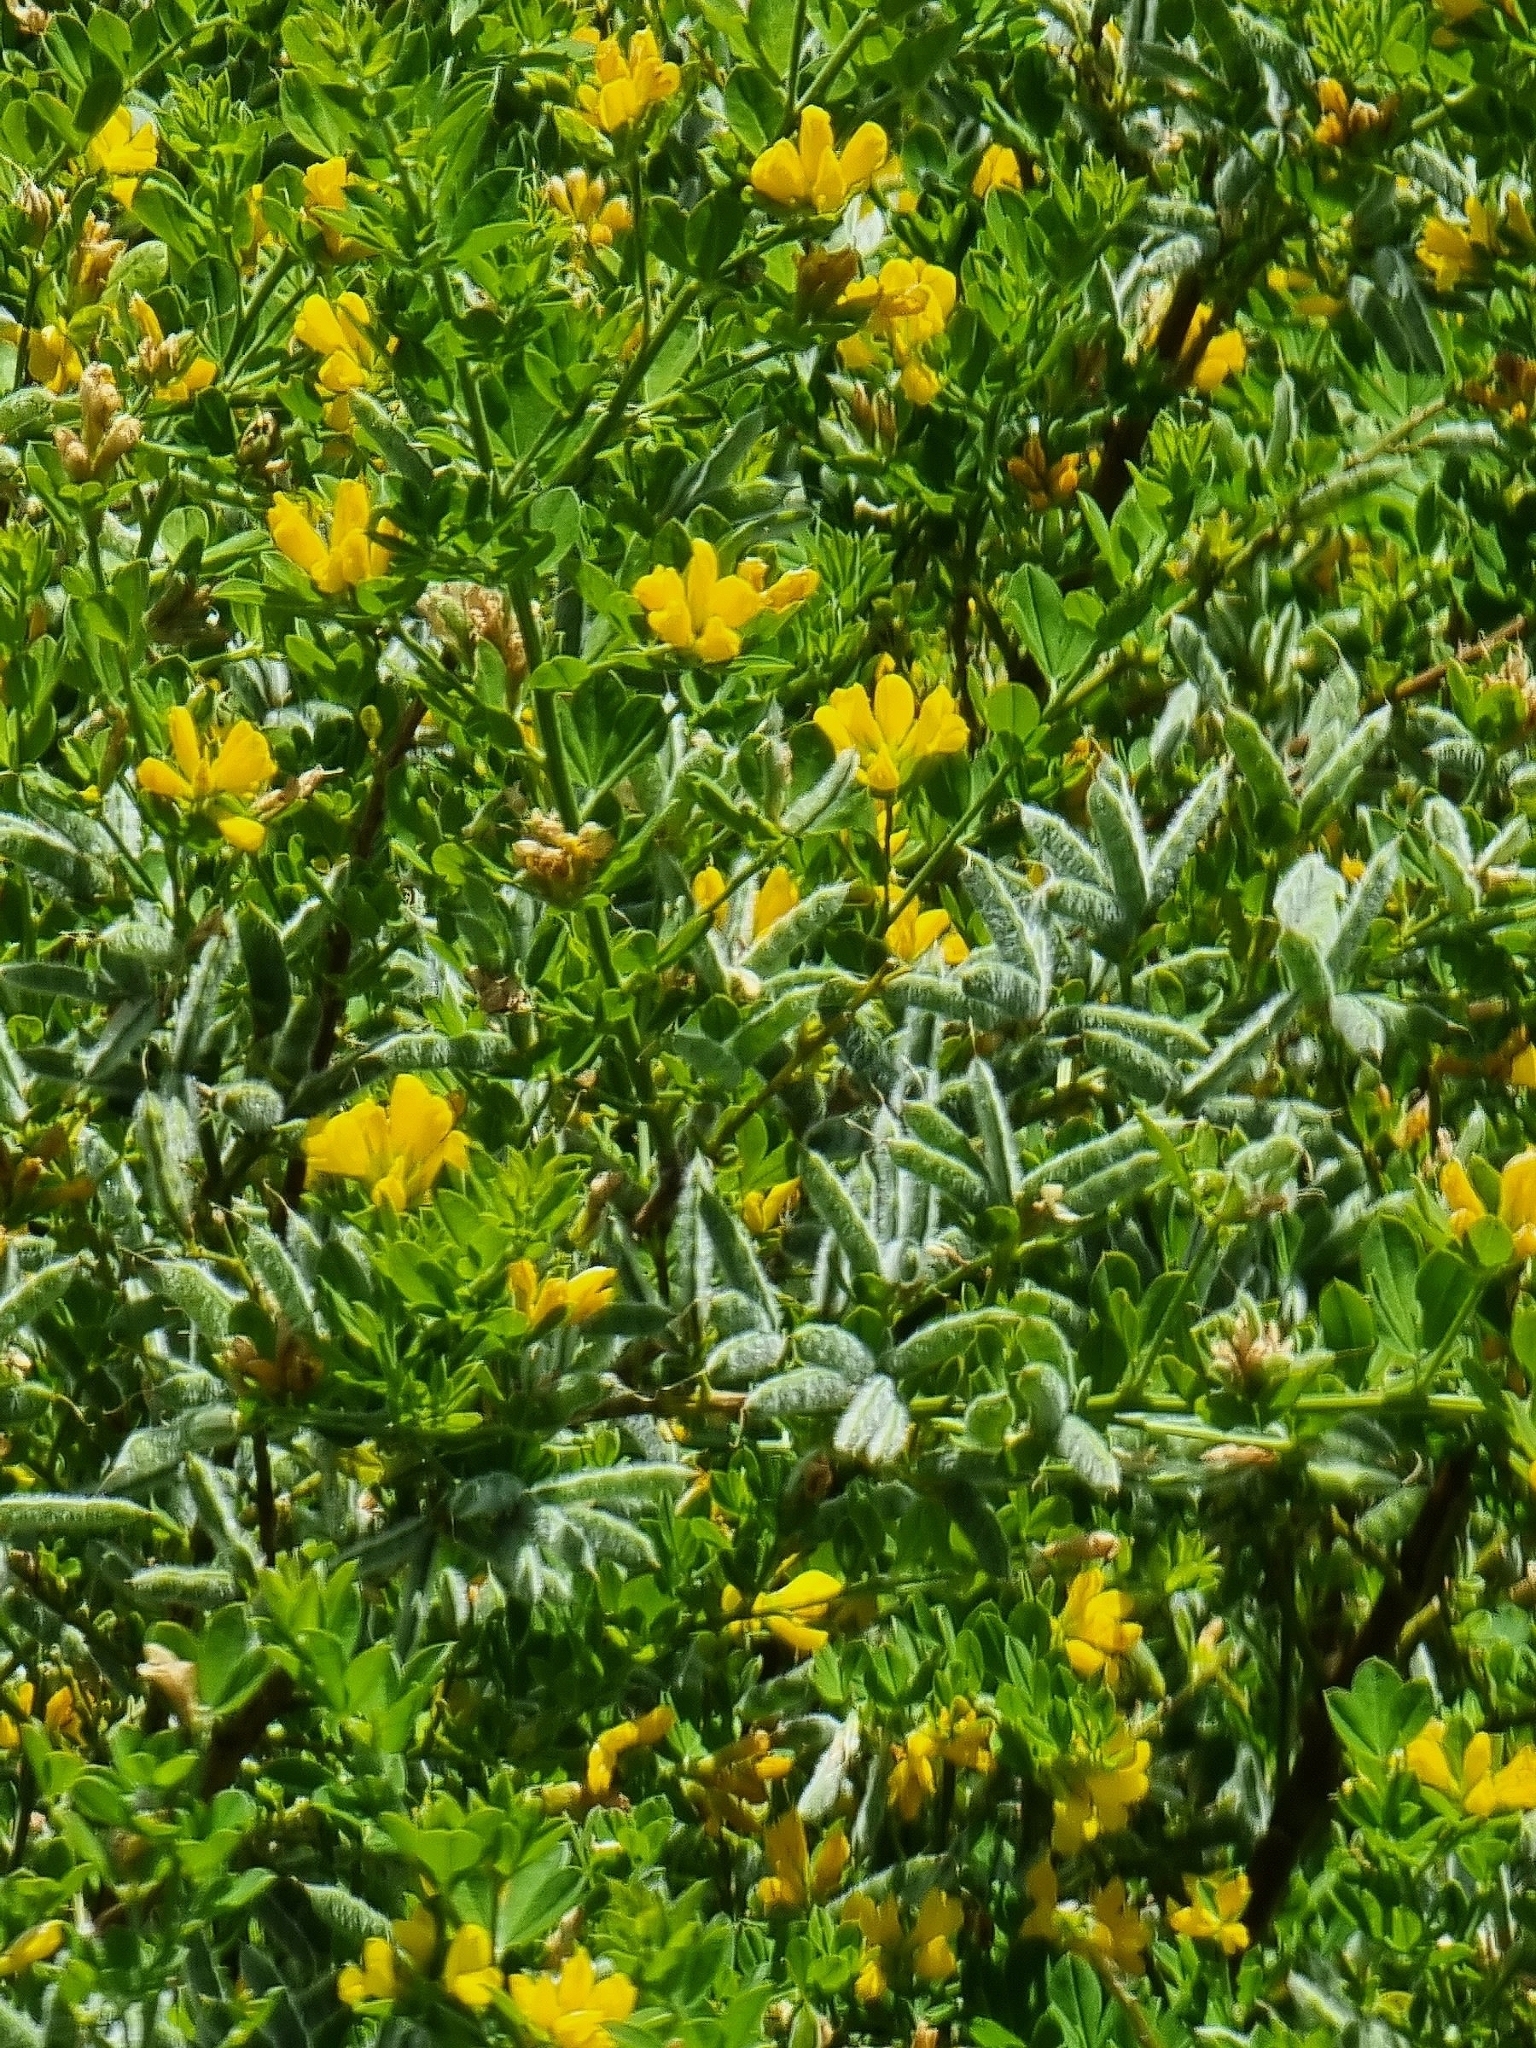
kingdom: Plantae
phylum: Tracheophyta
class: Magnoliopsida
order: Fabales
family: Fabaceae
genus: Genista
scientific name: Genista maderensis
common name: Madeira dyer's greenweed
